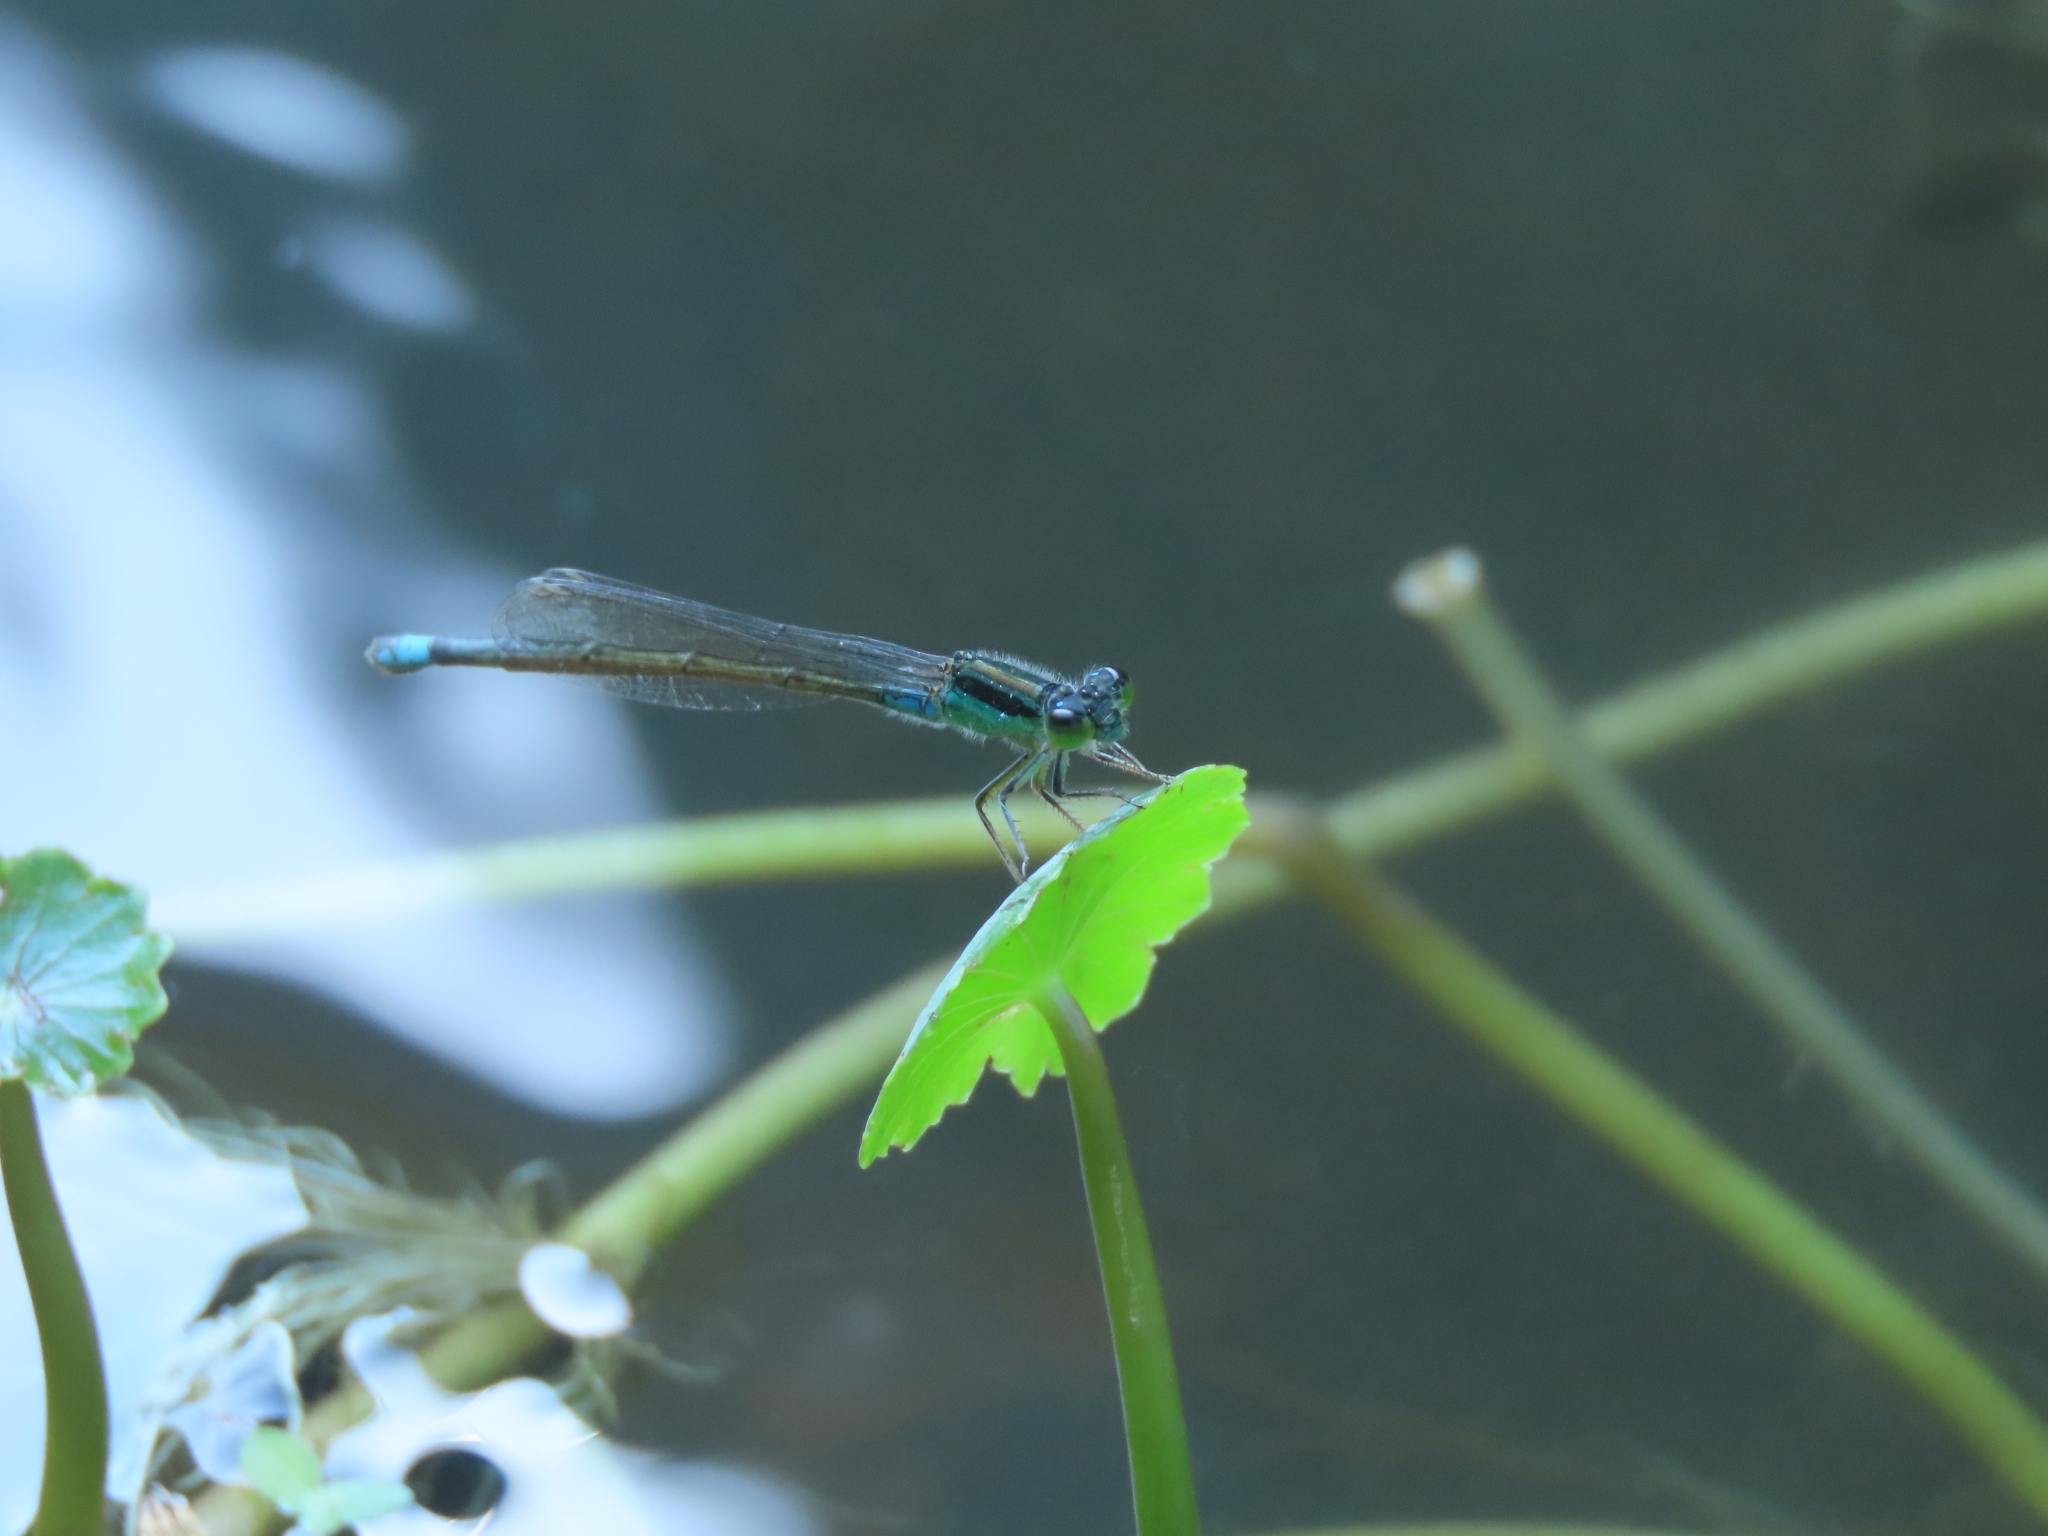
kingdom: Animalia
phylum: Arthropoda
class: Insecta
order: Odonata
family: Coenagrionidae
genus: Ischnura
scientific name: Ischnura senegalensis
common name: Tropical bluetail
